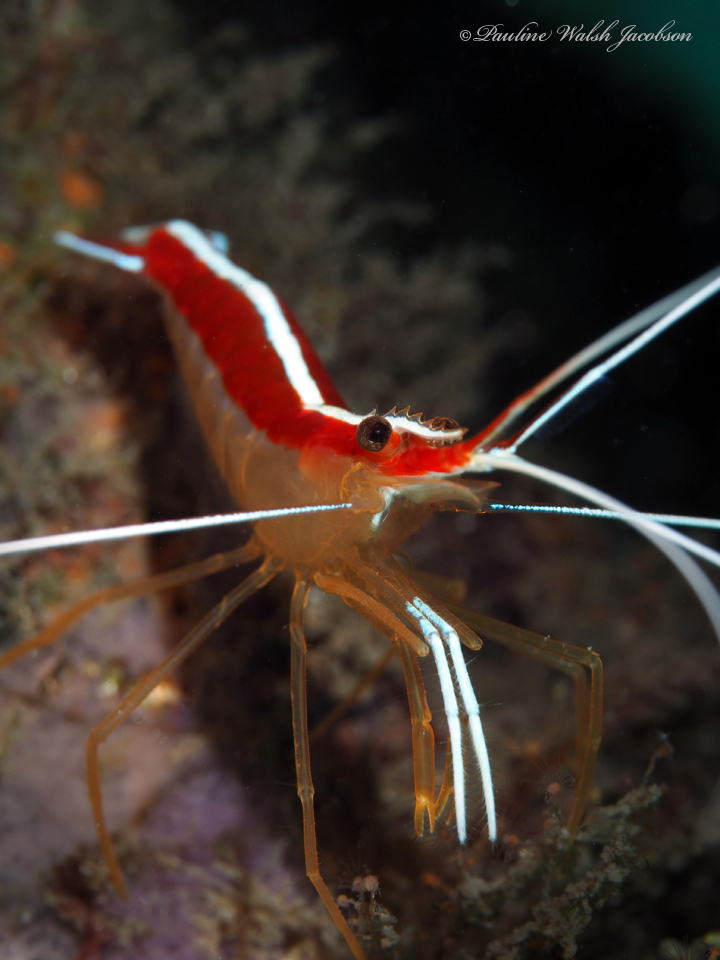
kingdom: Animalia
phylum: Arthropoda
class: Malacostraca
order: Decapoda
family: Lysmatidae
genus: Lysmata
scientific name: Lysmata grabhami
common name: Scarlet-striped cleaning shrimp
